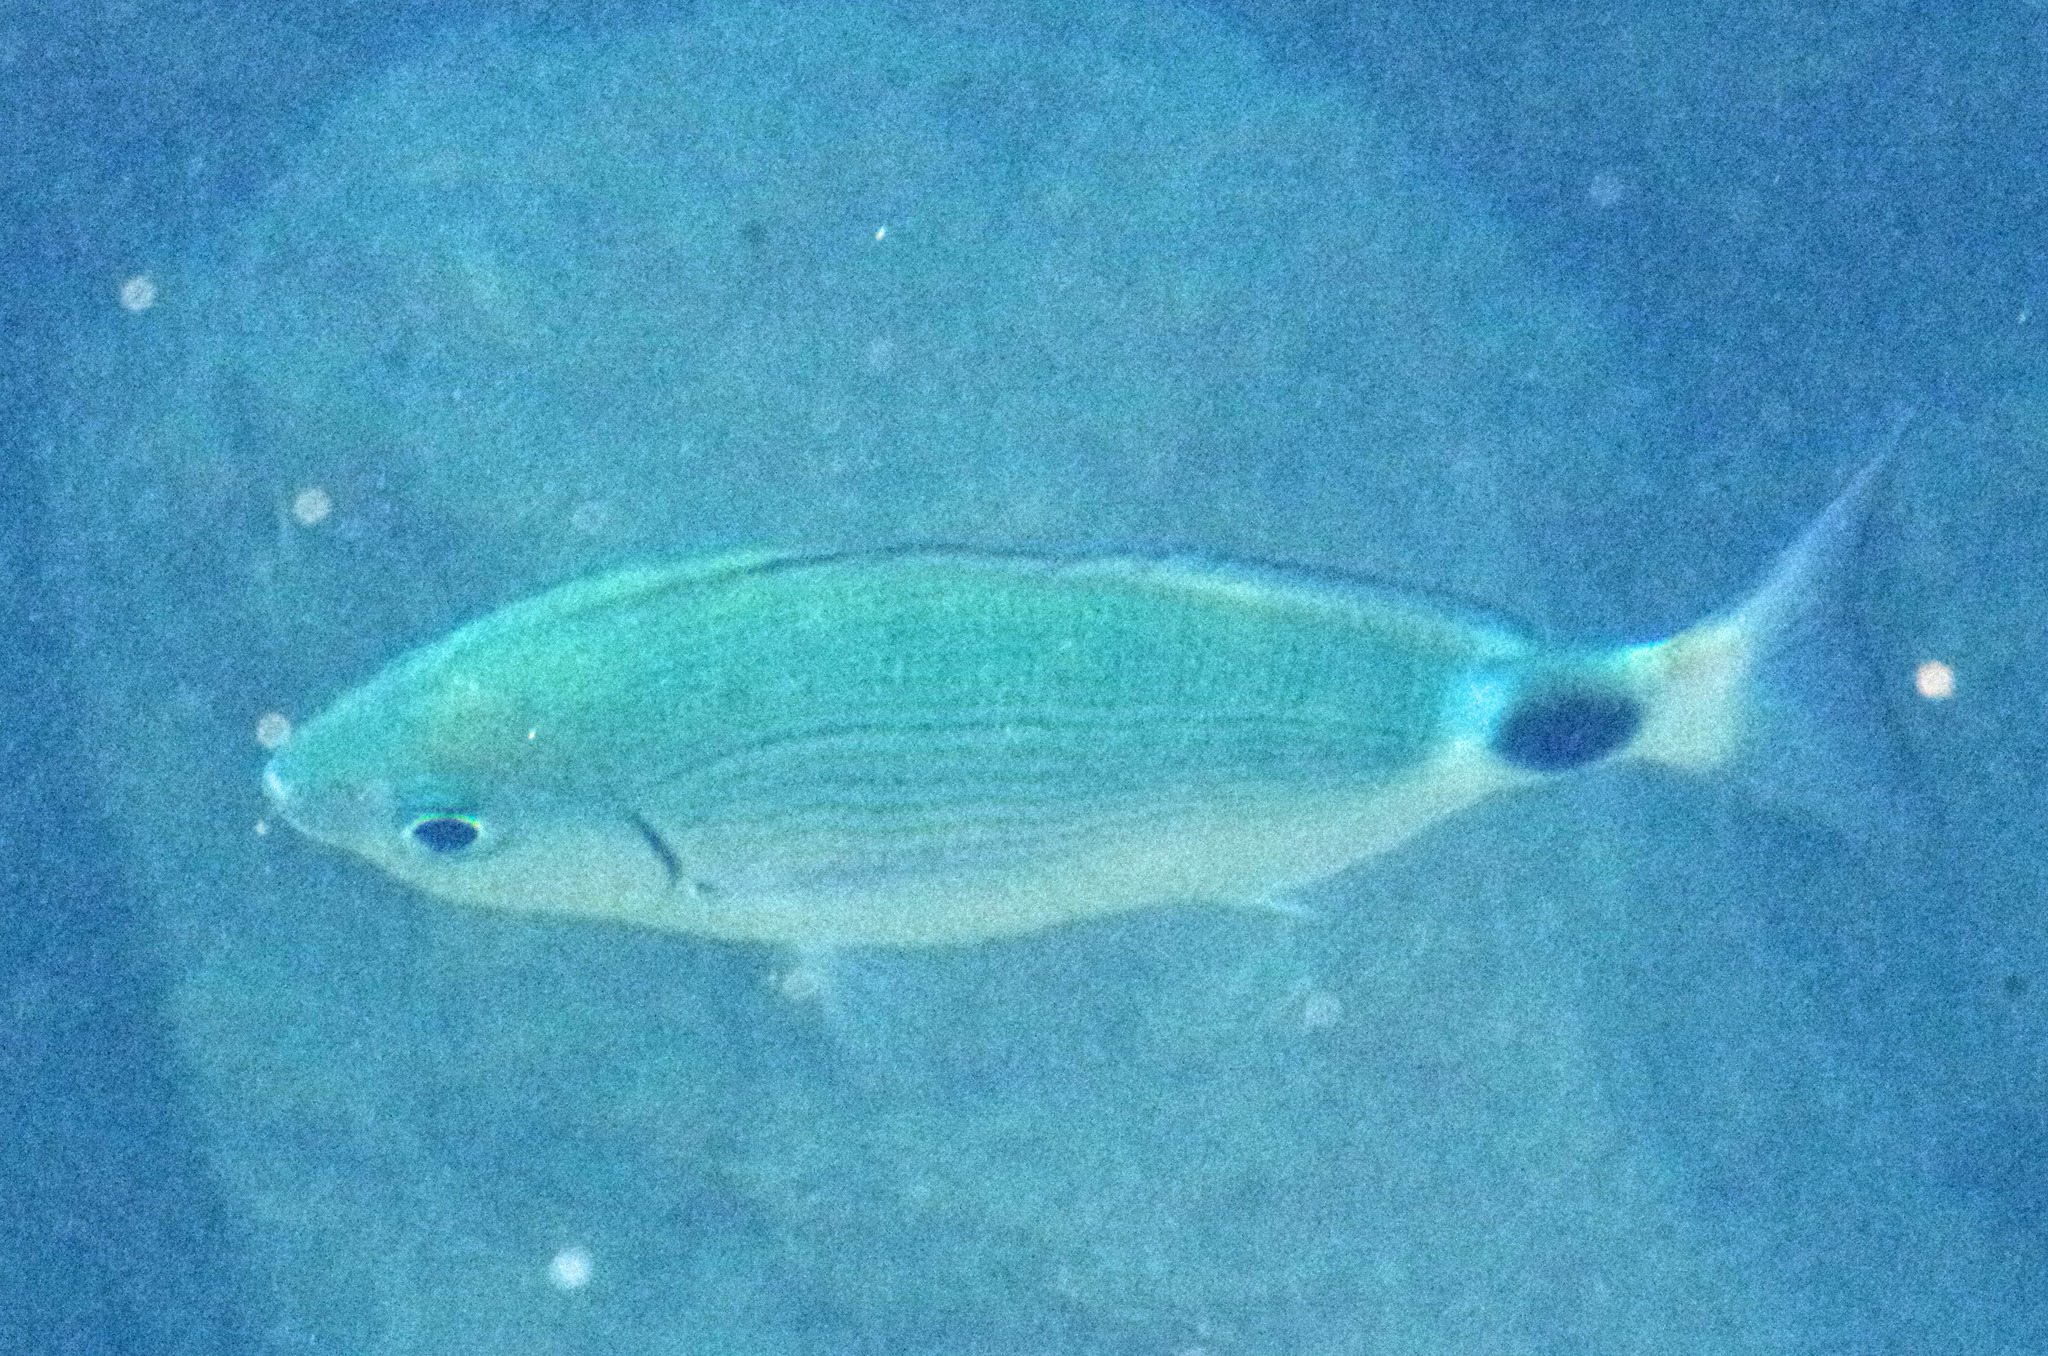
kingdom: Animalia
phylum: Chordata
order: Perciformes
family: Sparidae
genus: Oblada
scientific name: Oblada melanura
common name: Saddled seabream
